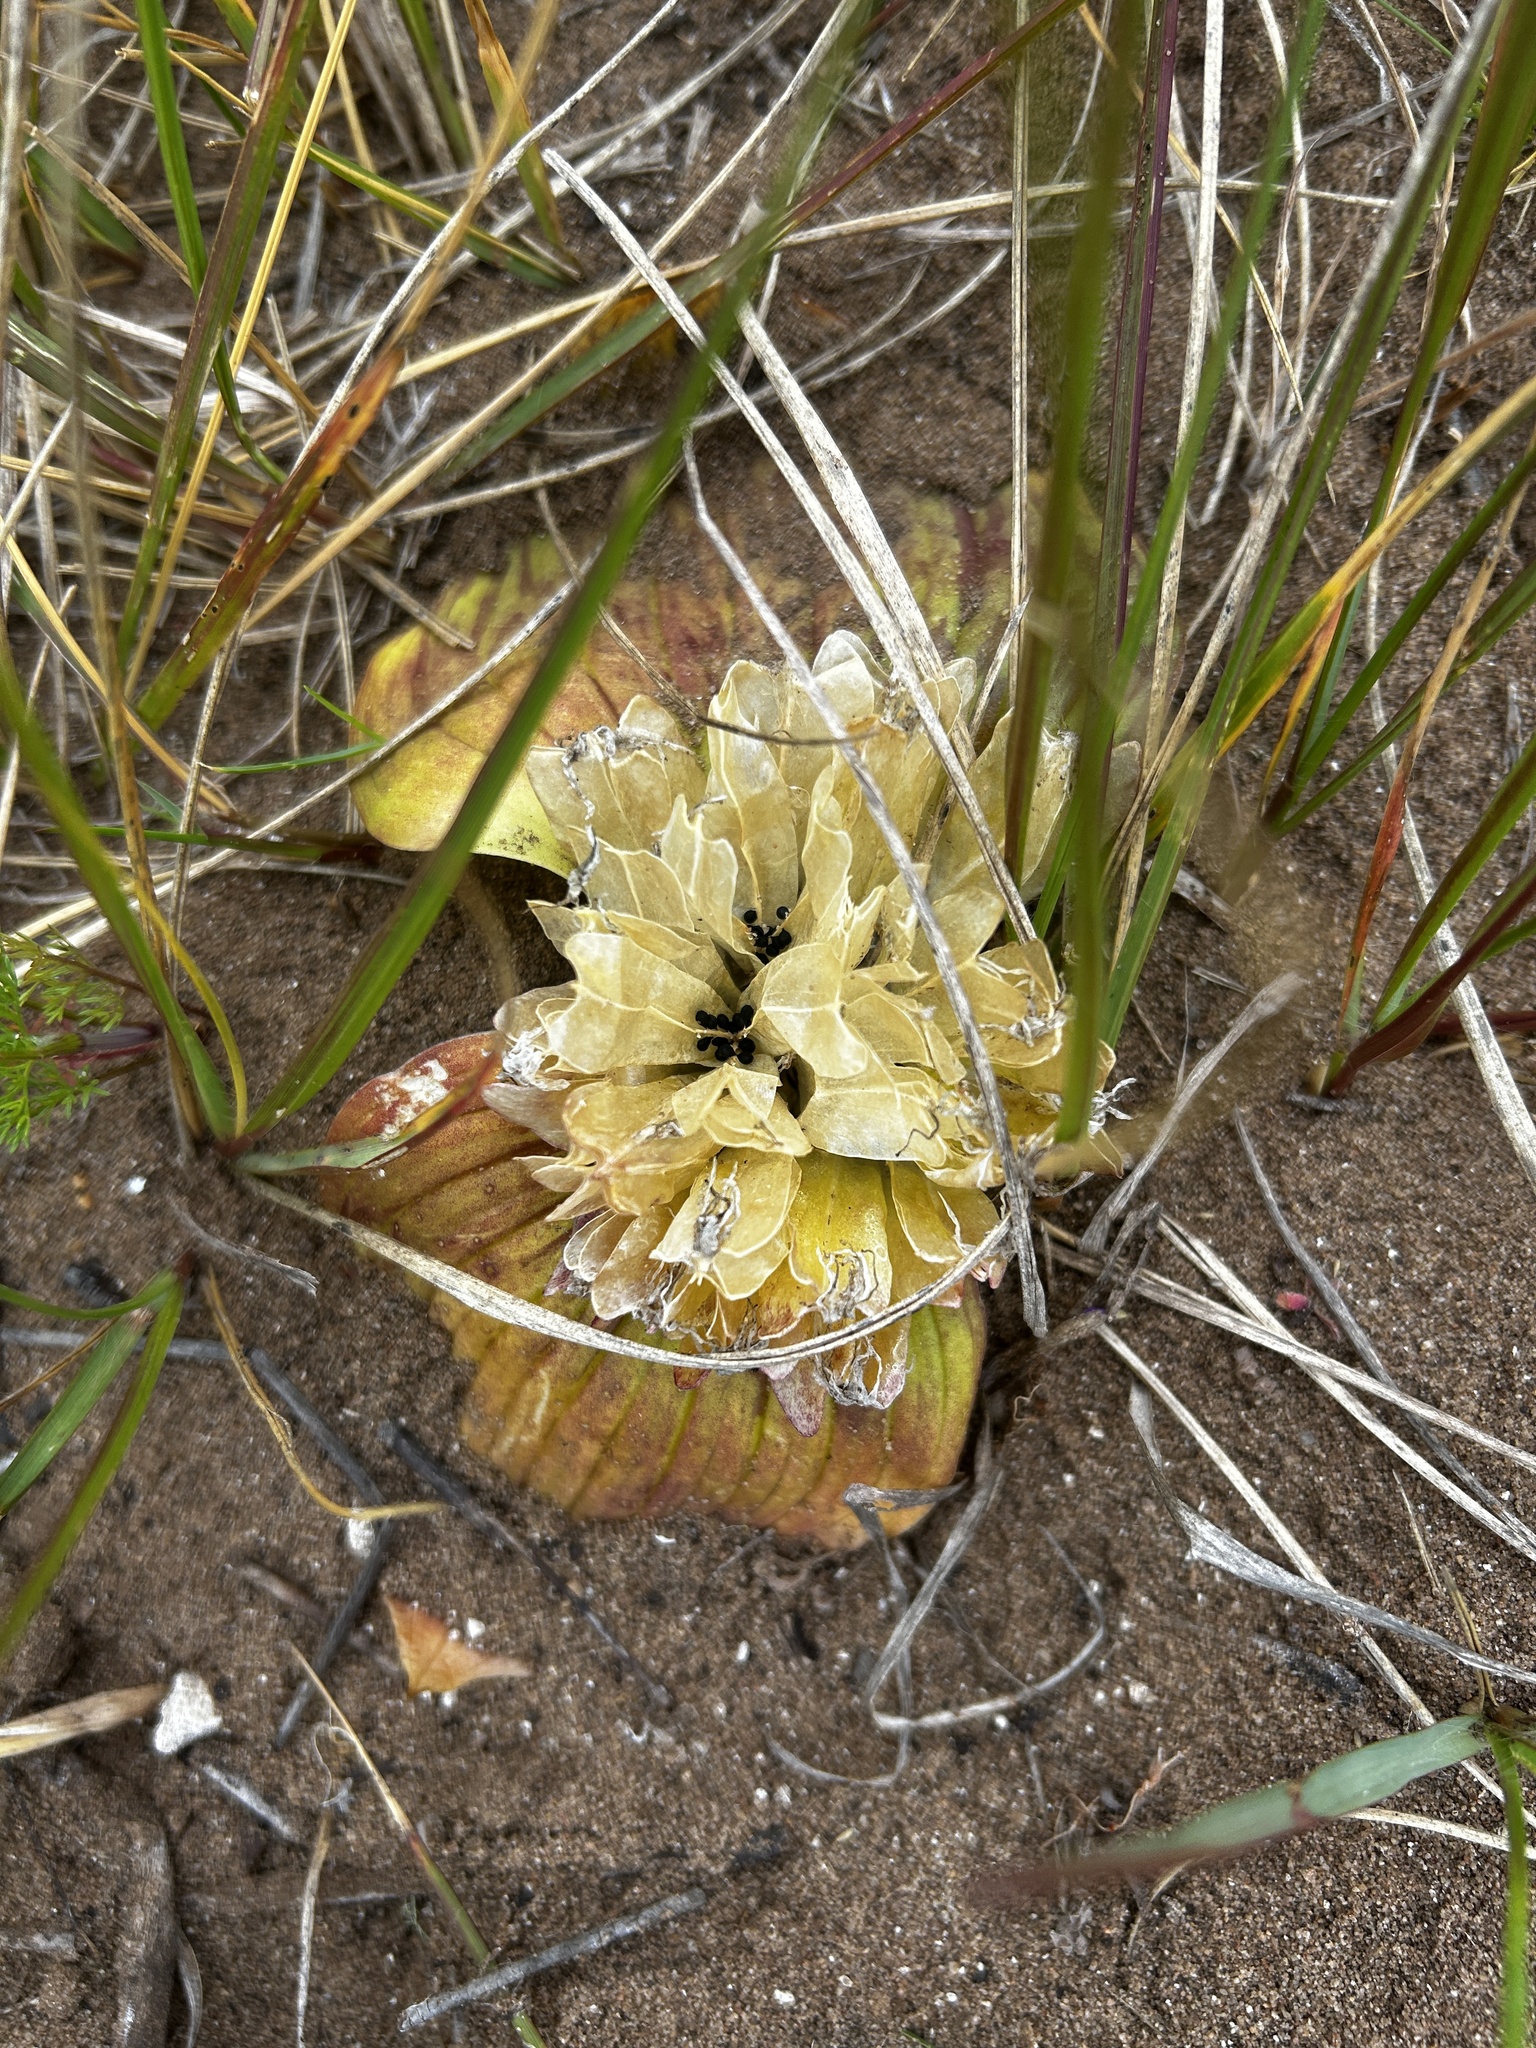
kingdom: Plantae
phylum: Tracheophyta
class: Liliopsida
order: Asparagales
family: Asparagaceae
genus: Massonia
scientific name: Massonia longipes
